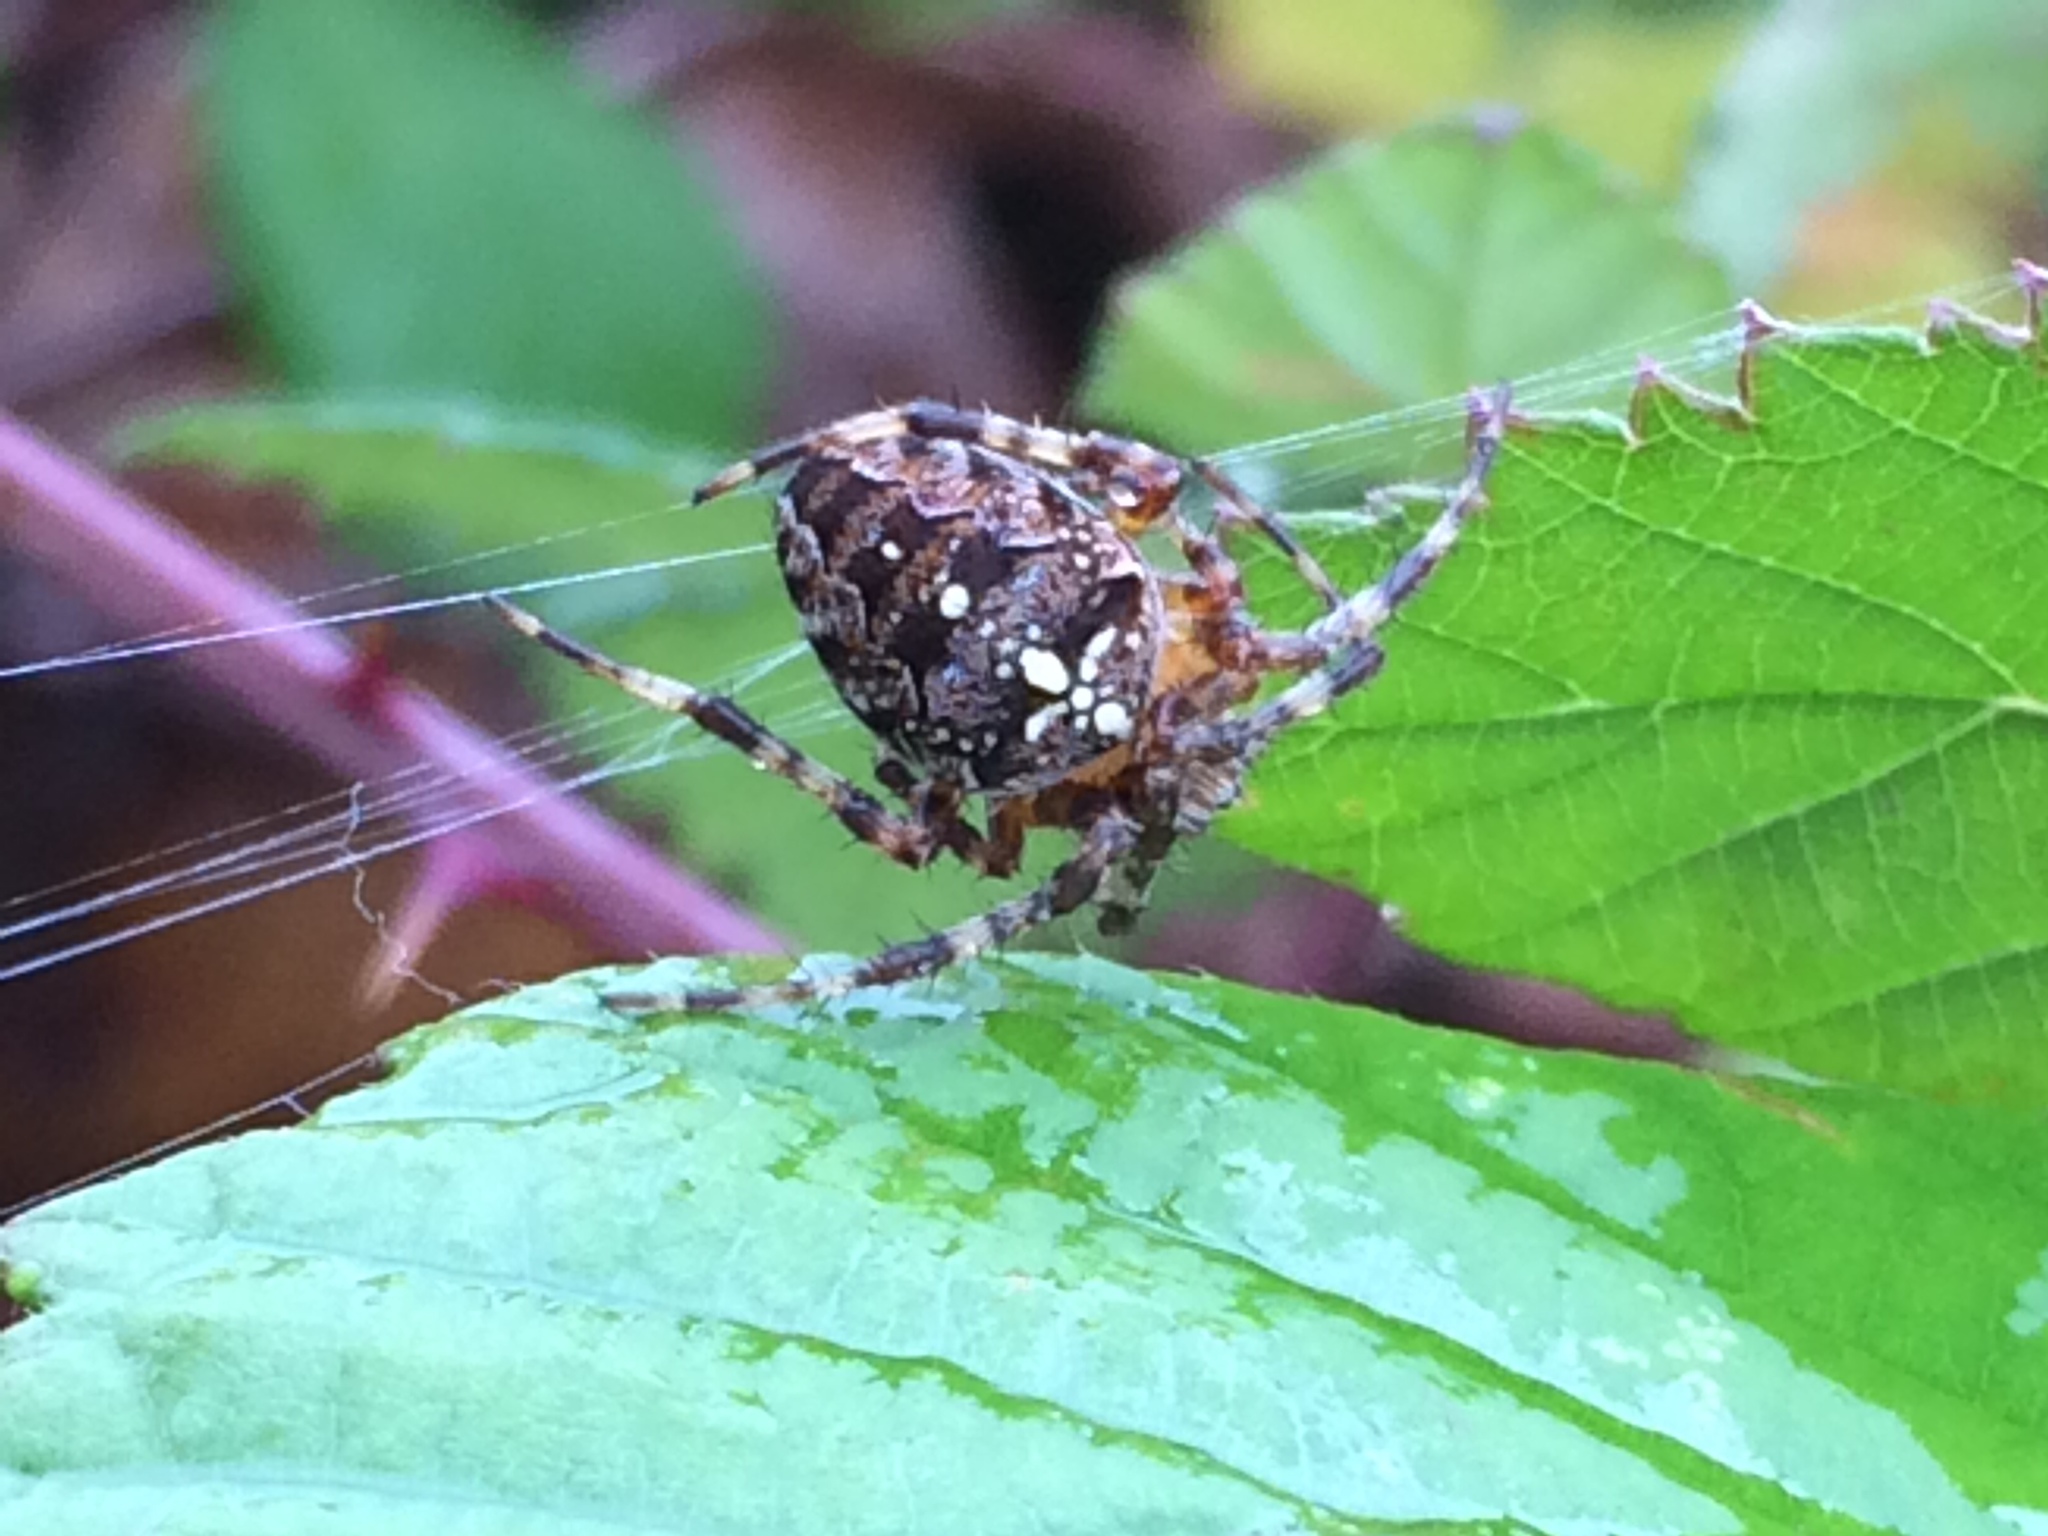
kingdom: Animalia
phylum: Arthropoda
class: Arachnida
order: Araneae
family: Araneidae
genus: Araneus
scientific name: Araneus diadematus
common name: Cross orbweaver
